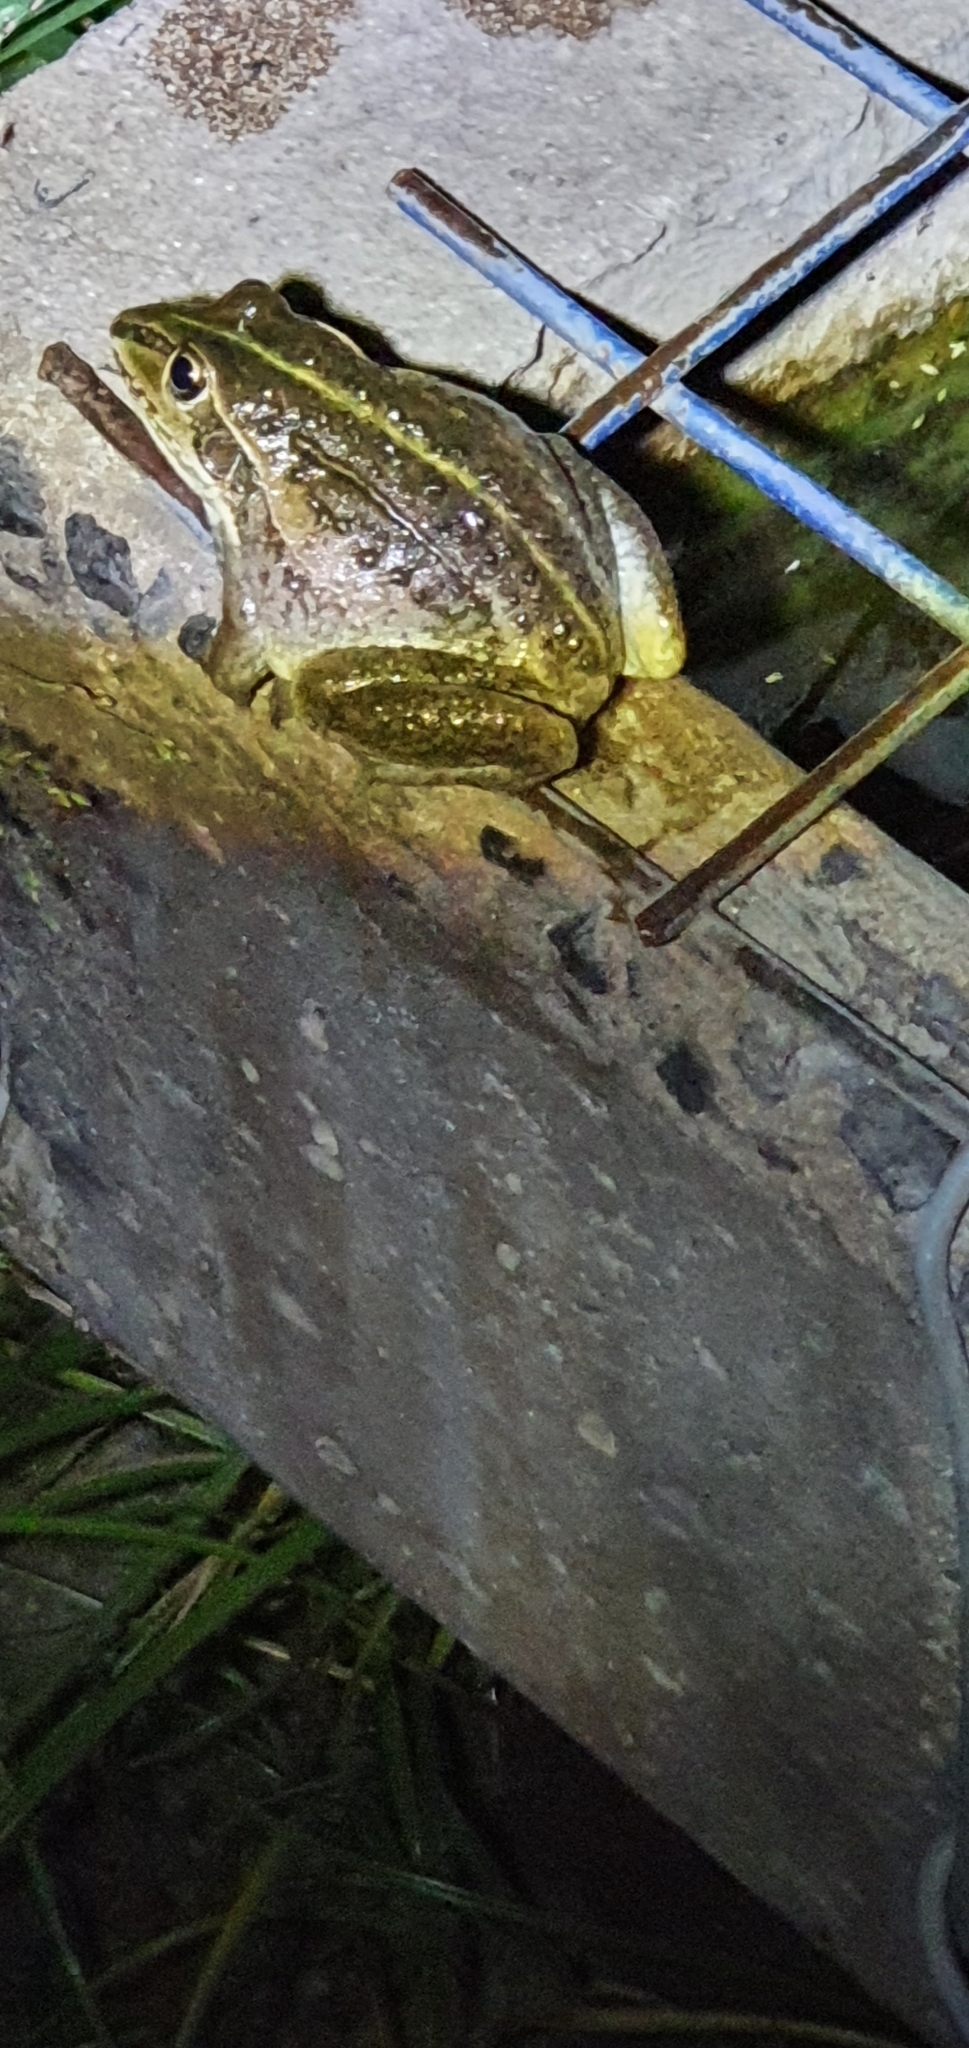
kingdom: Animalia
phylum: Chordata
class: Amphibia
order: Anura
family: Pelodryadidae
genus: Ranoidea
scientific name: Ranoidea alboguttata
